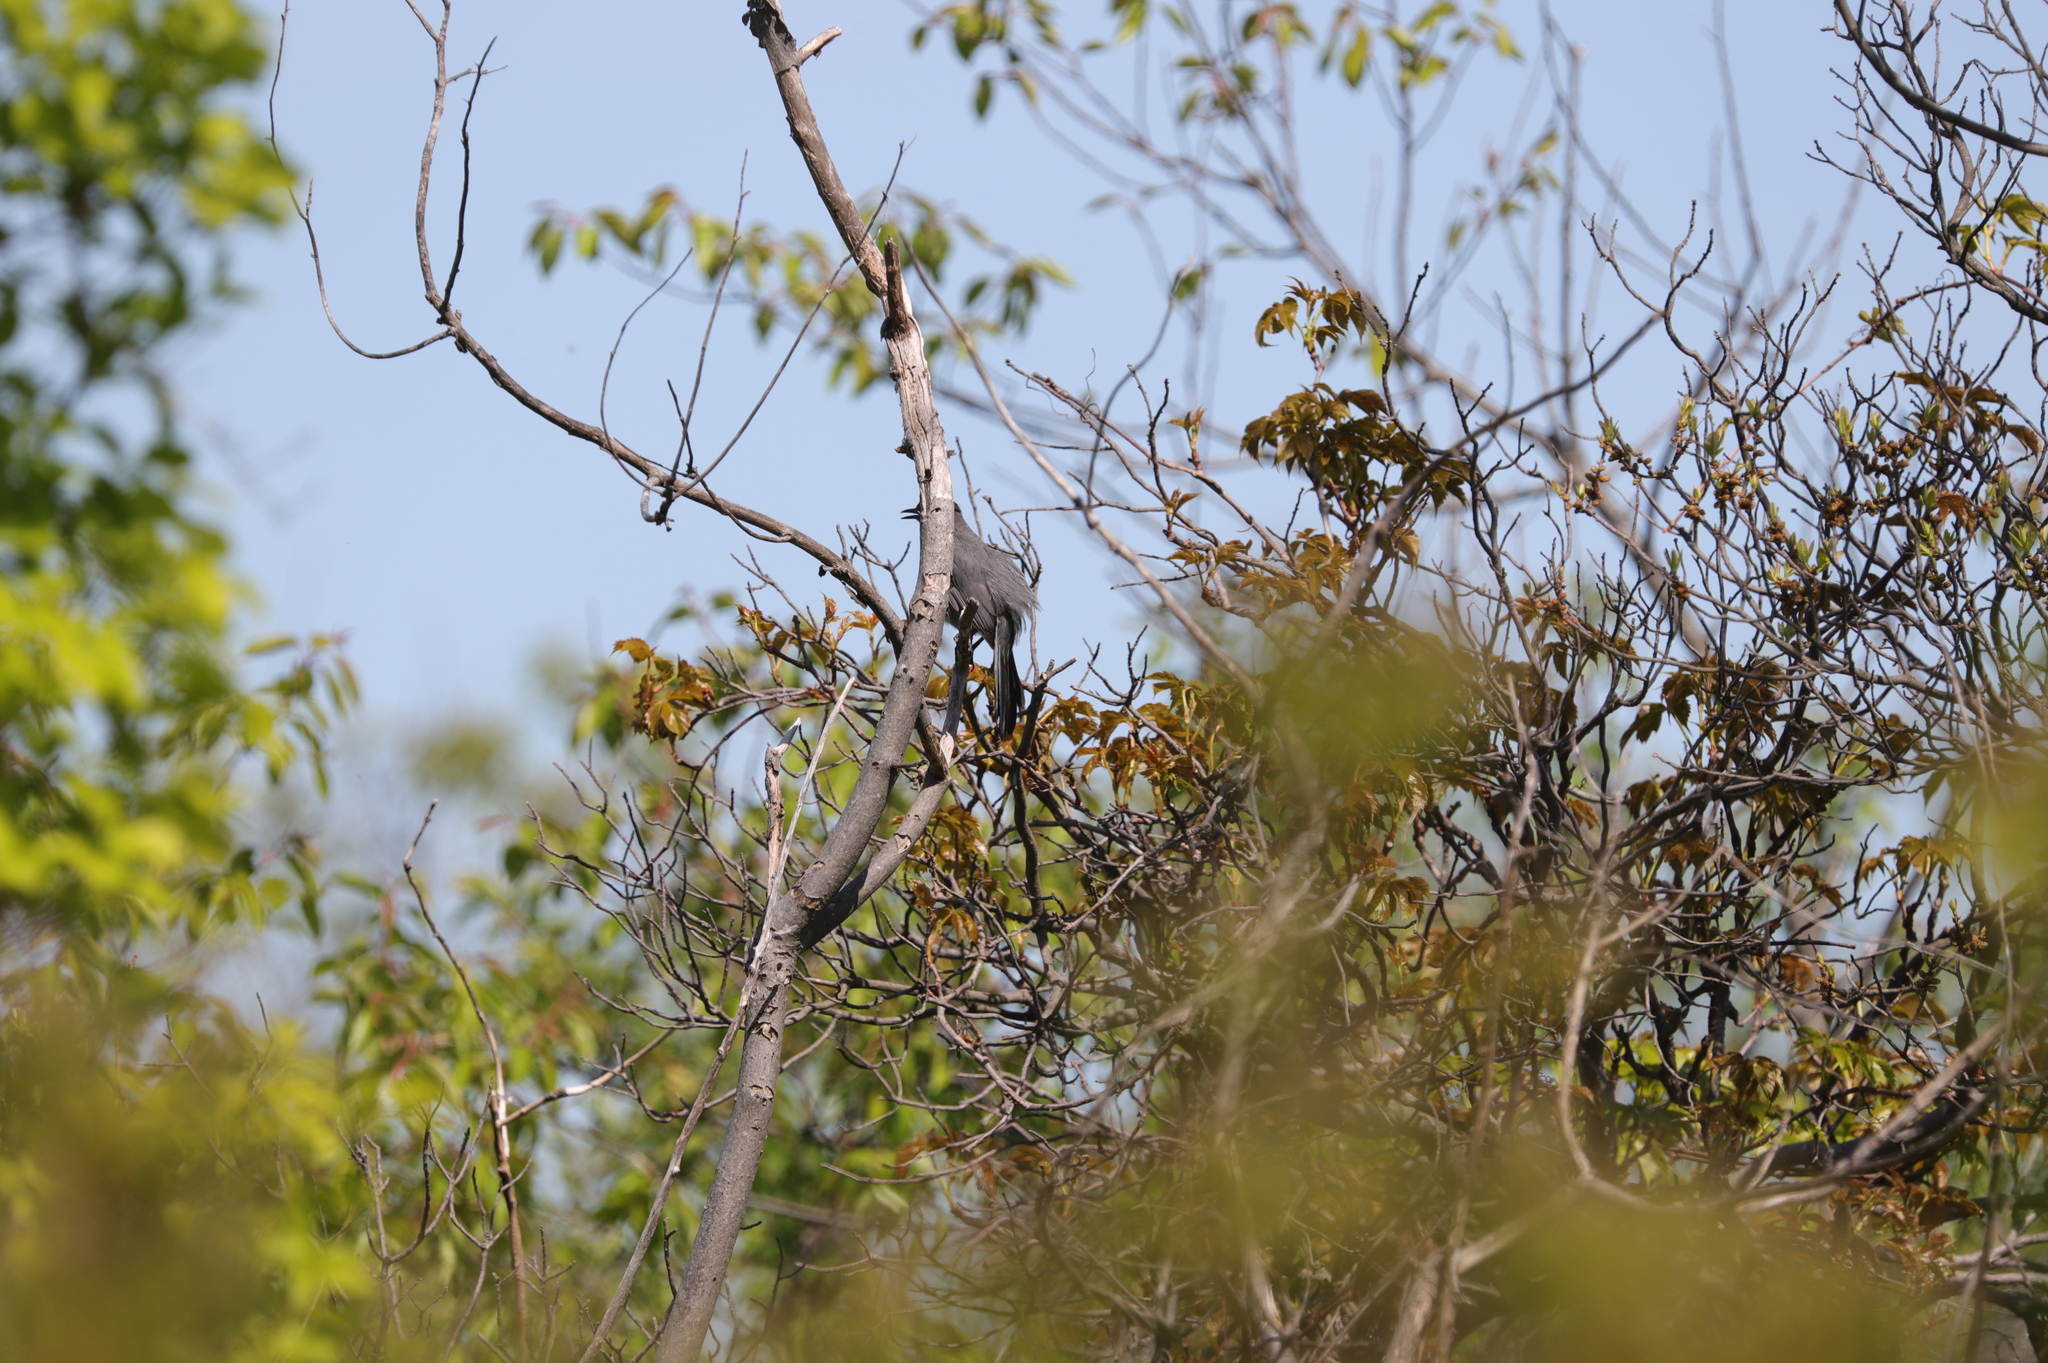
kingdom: Animalia
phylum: Chordata
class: Aves
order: Passeriformes
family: Mimidae
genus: Dumetella
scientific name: Dumetella carolinensis
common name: Gray catbird
